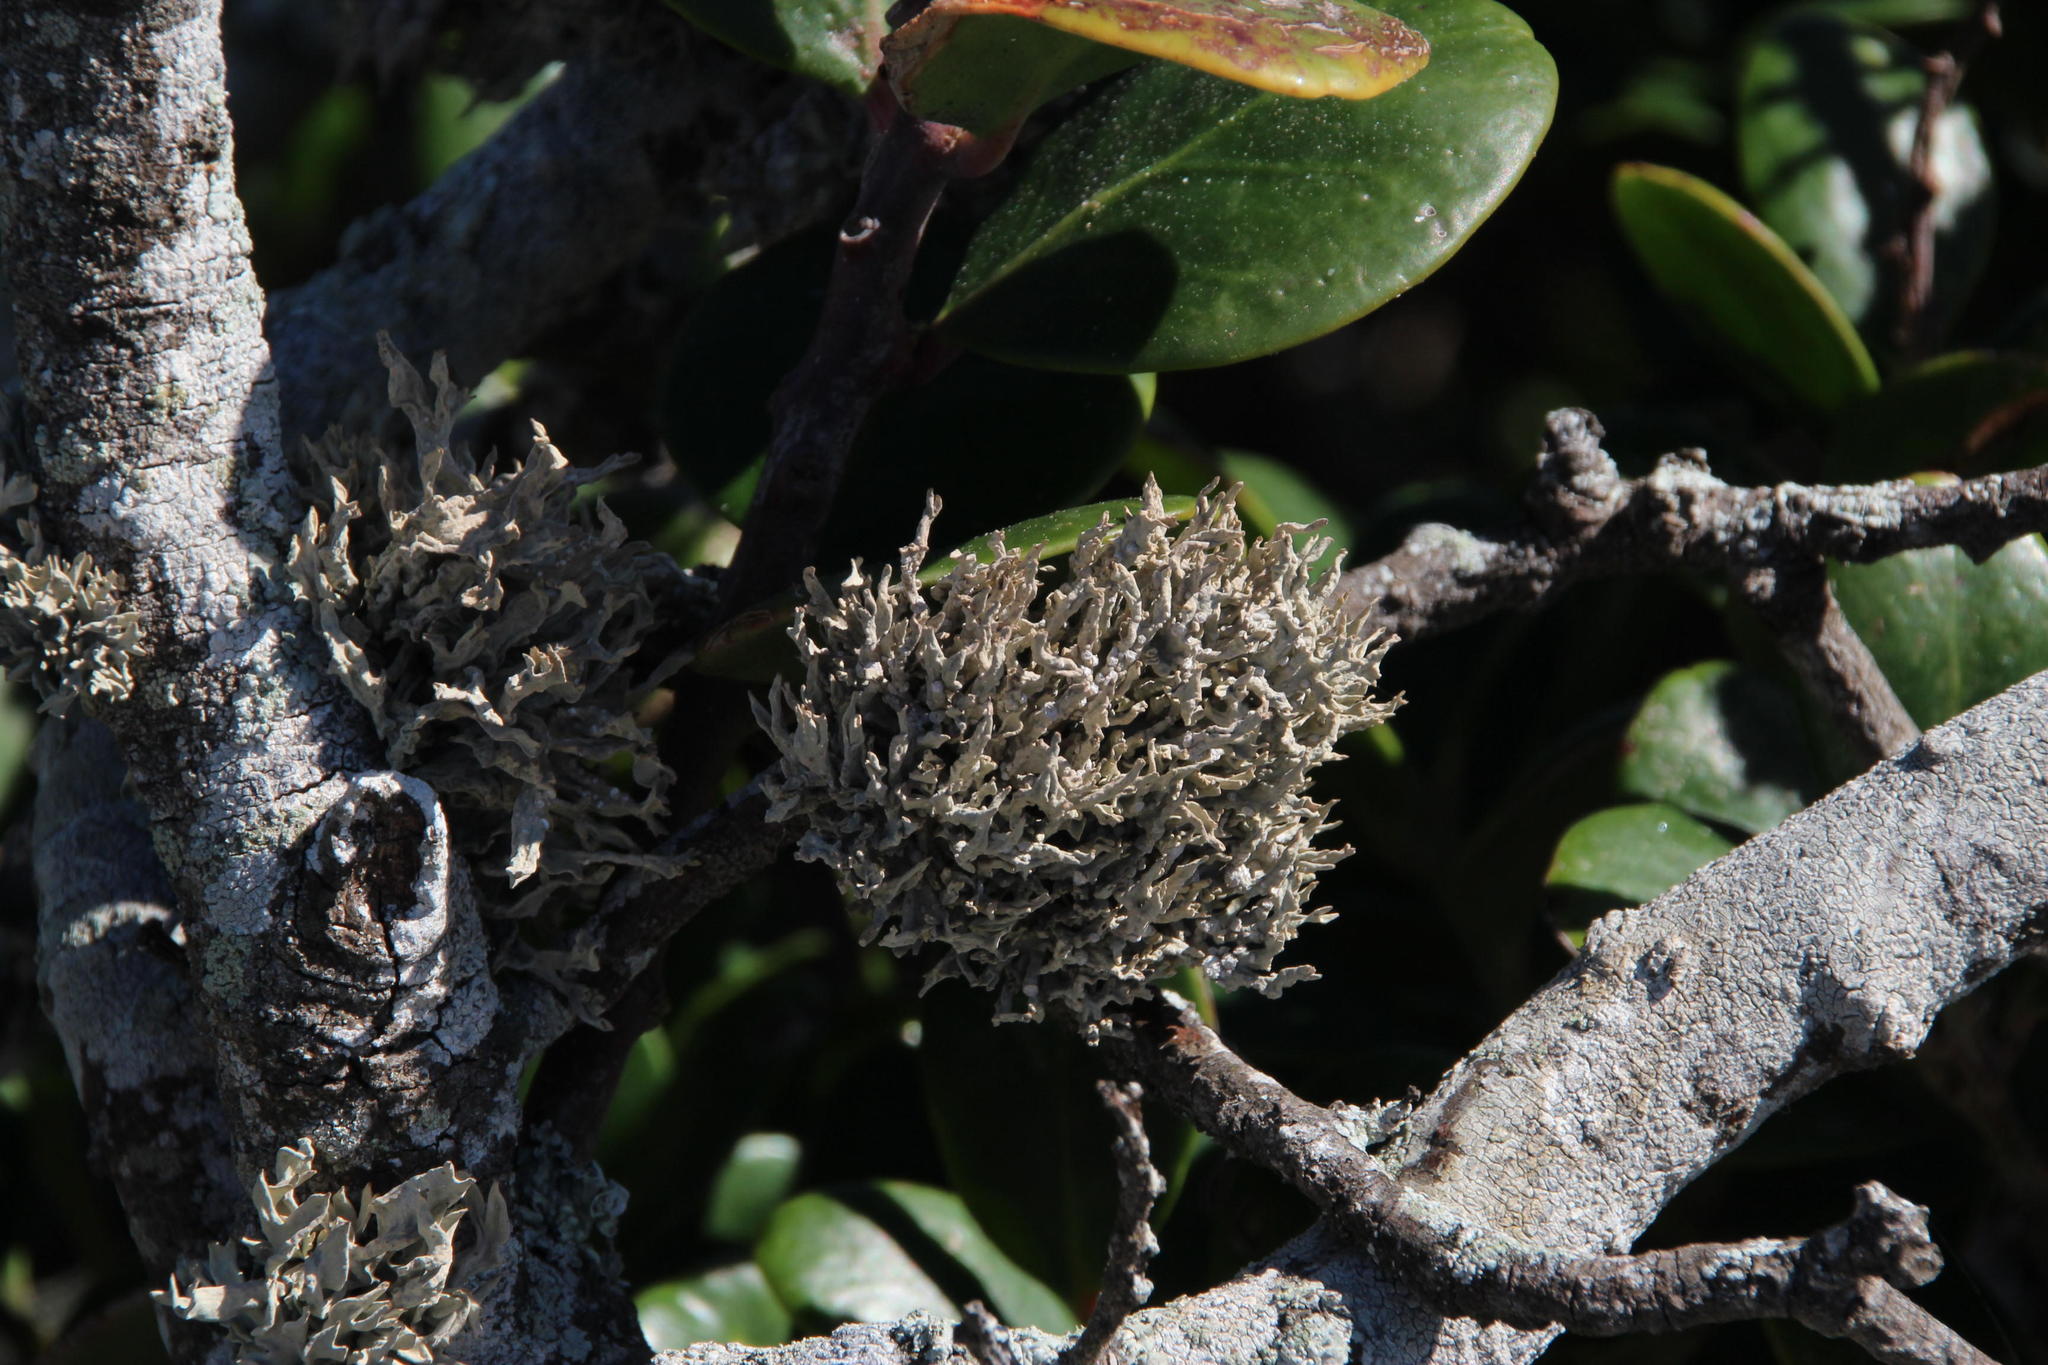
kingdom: Fungi
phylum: Ascomycota
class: Arthoniomycetes
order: Arthoniales
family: Roccellaceae
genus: Roccella
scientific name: Roccella montagnei
